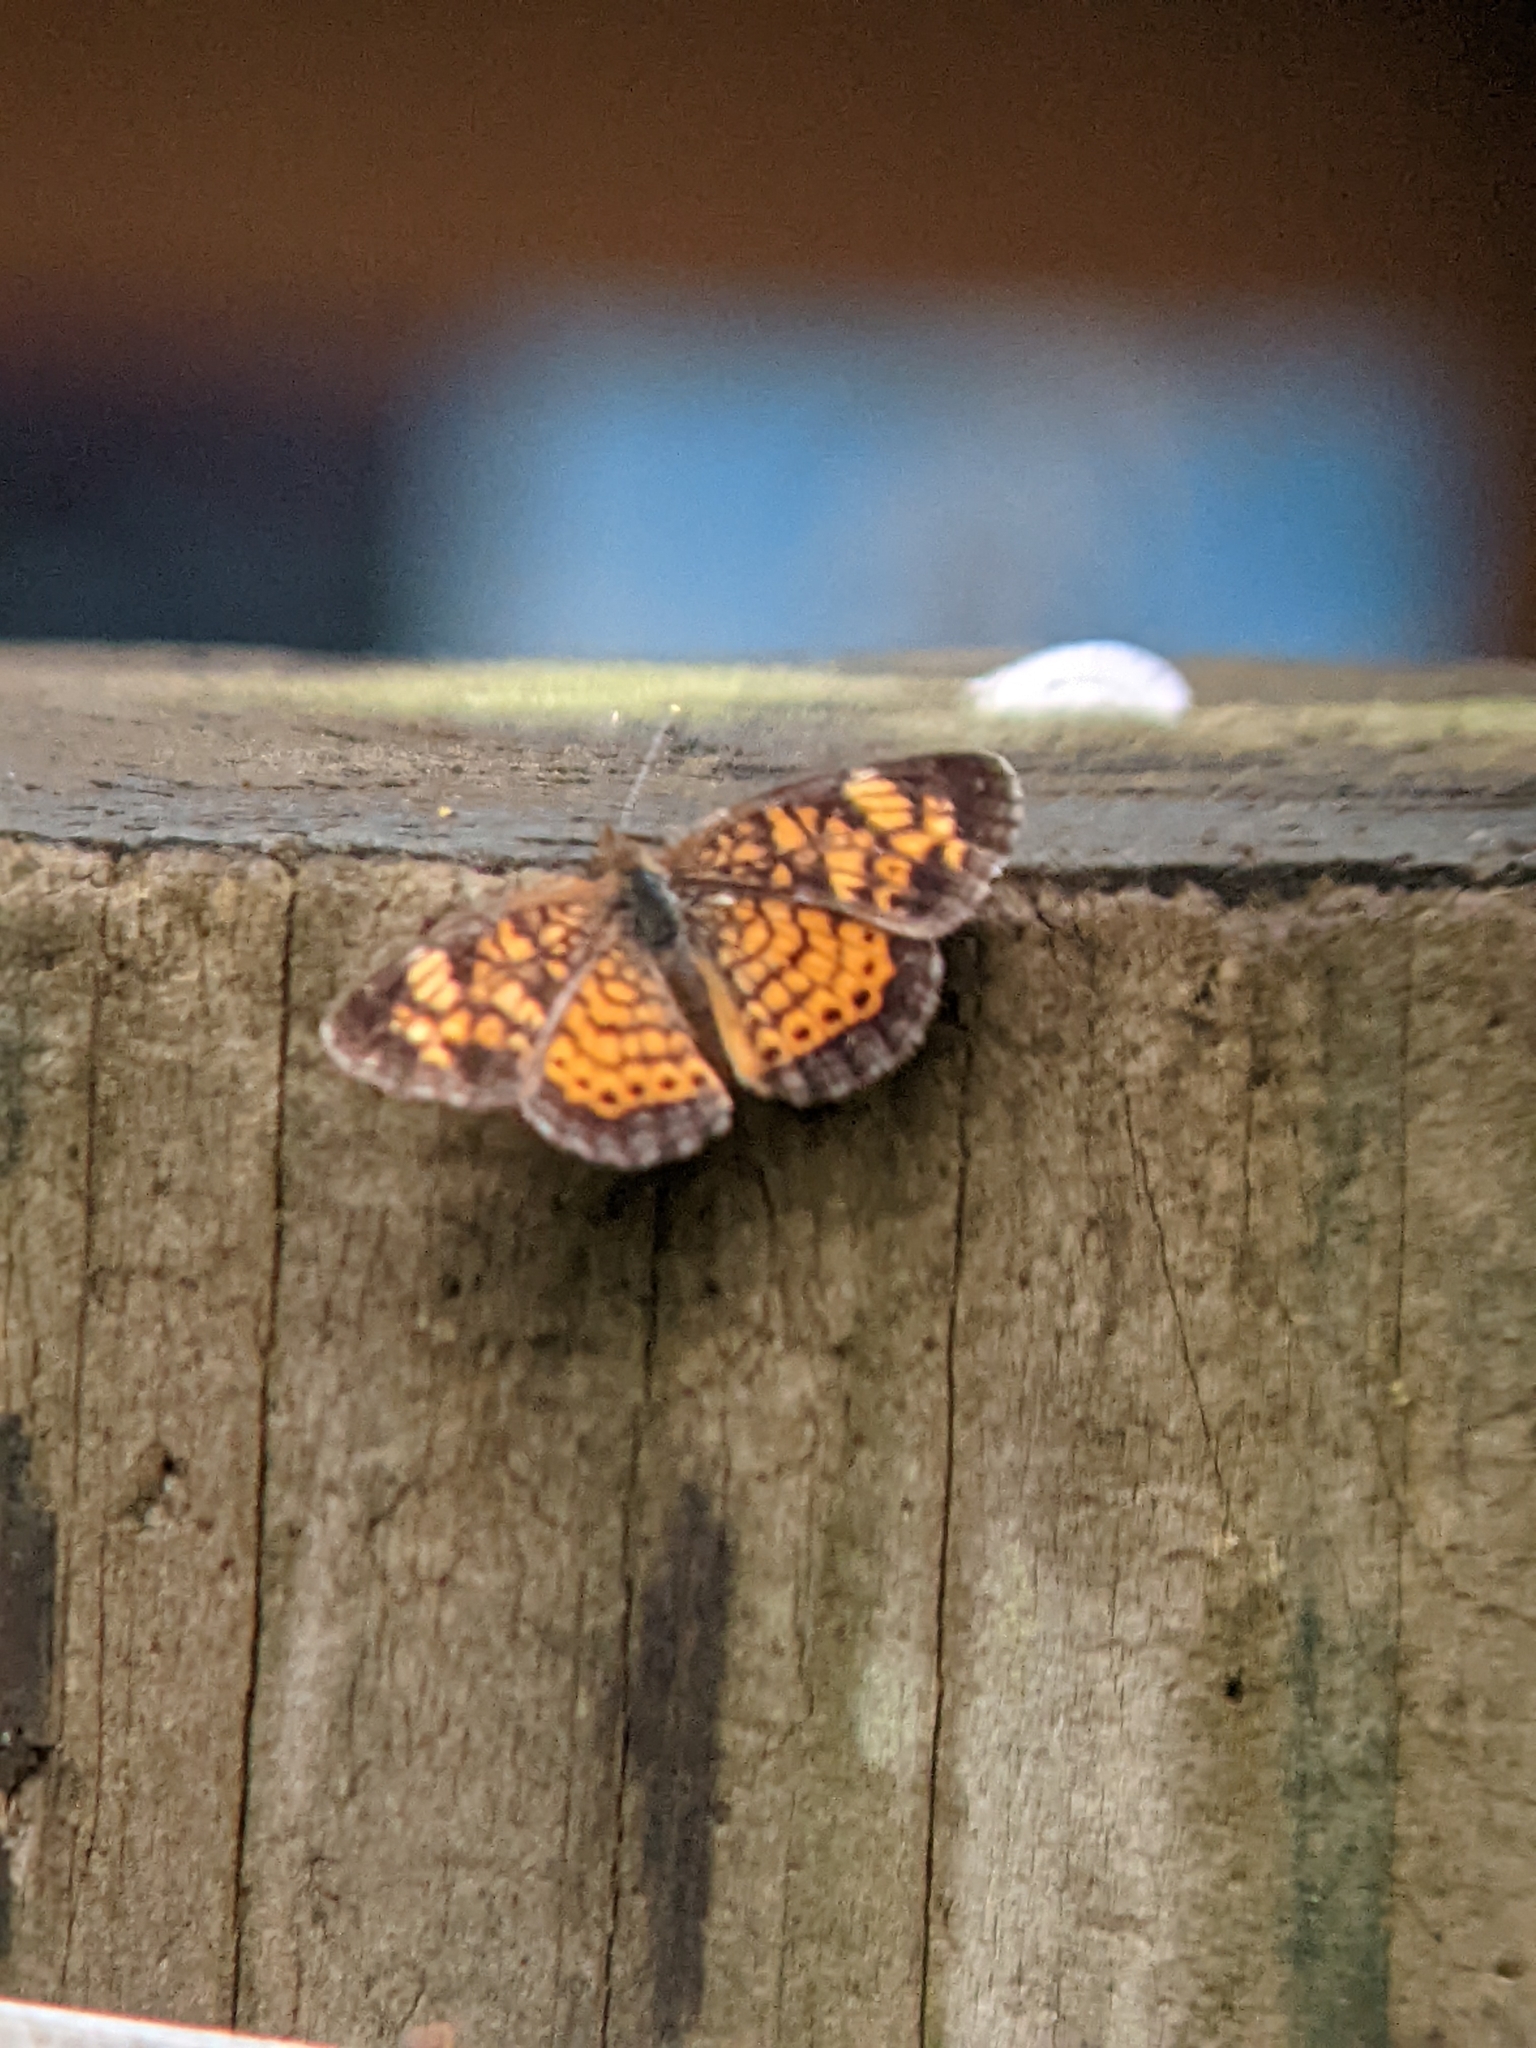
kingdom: Animalia
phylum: Arthropoda
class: Insecta
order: Lepidoptera
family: Nymphalidae
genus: Phyciodes
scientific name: Phyciodes tharos
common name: Pearl crescent
